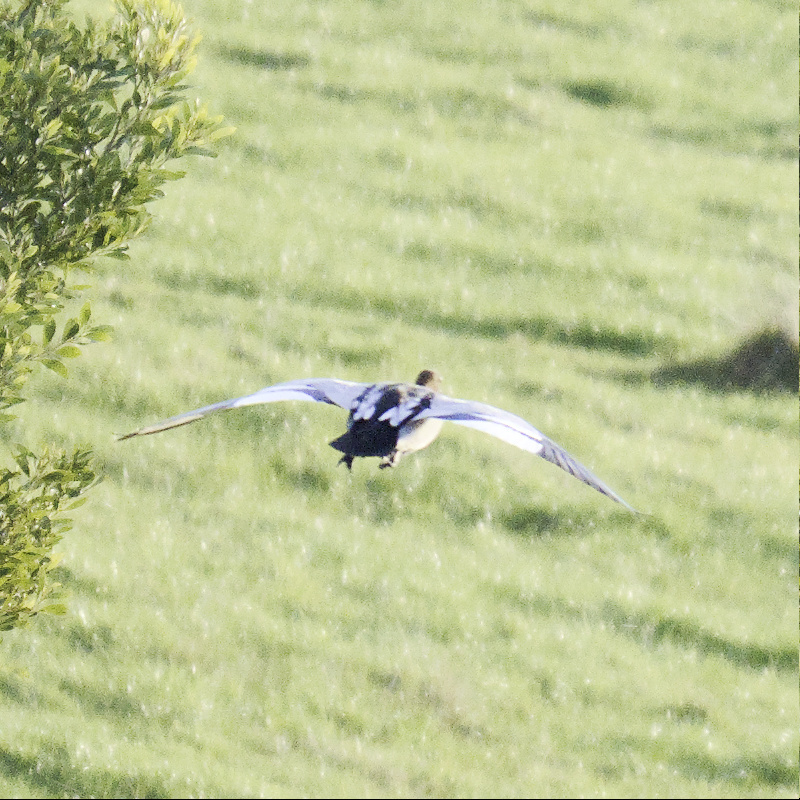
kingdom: Animalia
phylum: Chordata
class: Aves
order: Anseriformes
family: Anatidae
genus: Chenonetta
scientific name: Chenonetta jubata
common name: Maned duck
